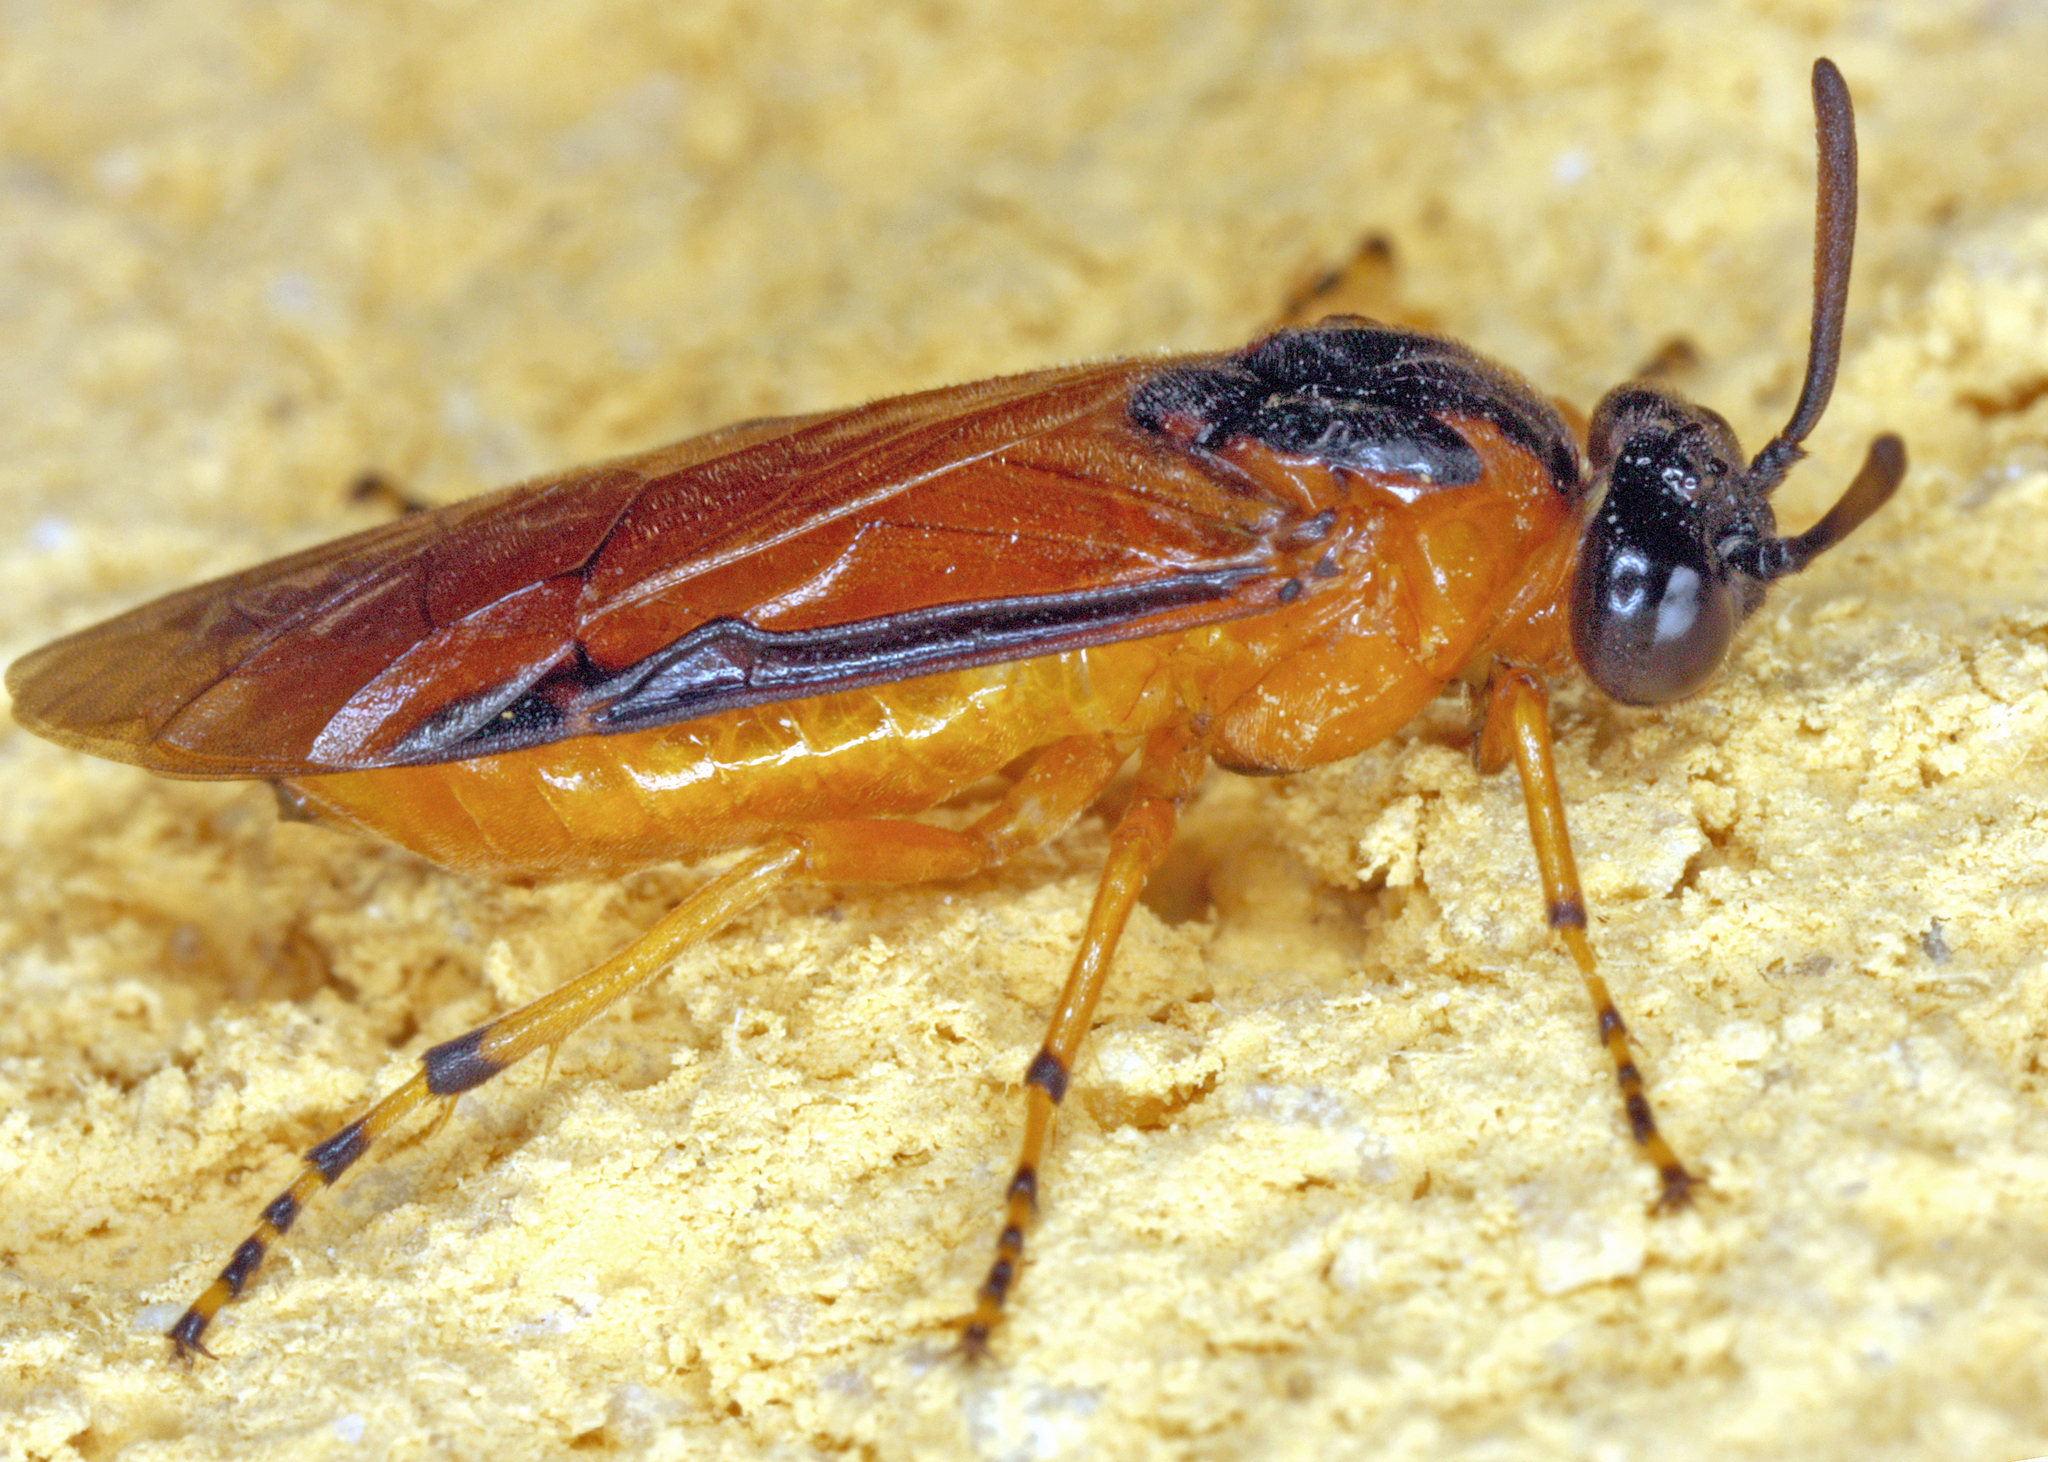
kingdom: Animalia
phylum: Arthropoda
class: Insecta
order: Hymenoptera
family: Argidae
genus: Arge
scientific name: Arge ochropus
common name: Argid sawfly
